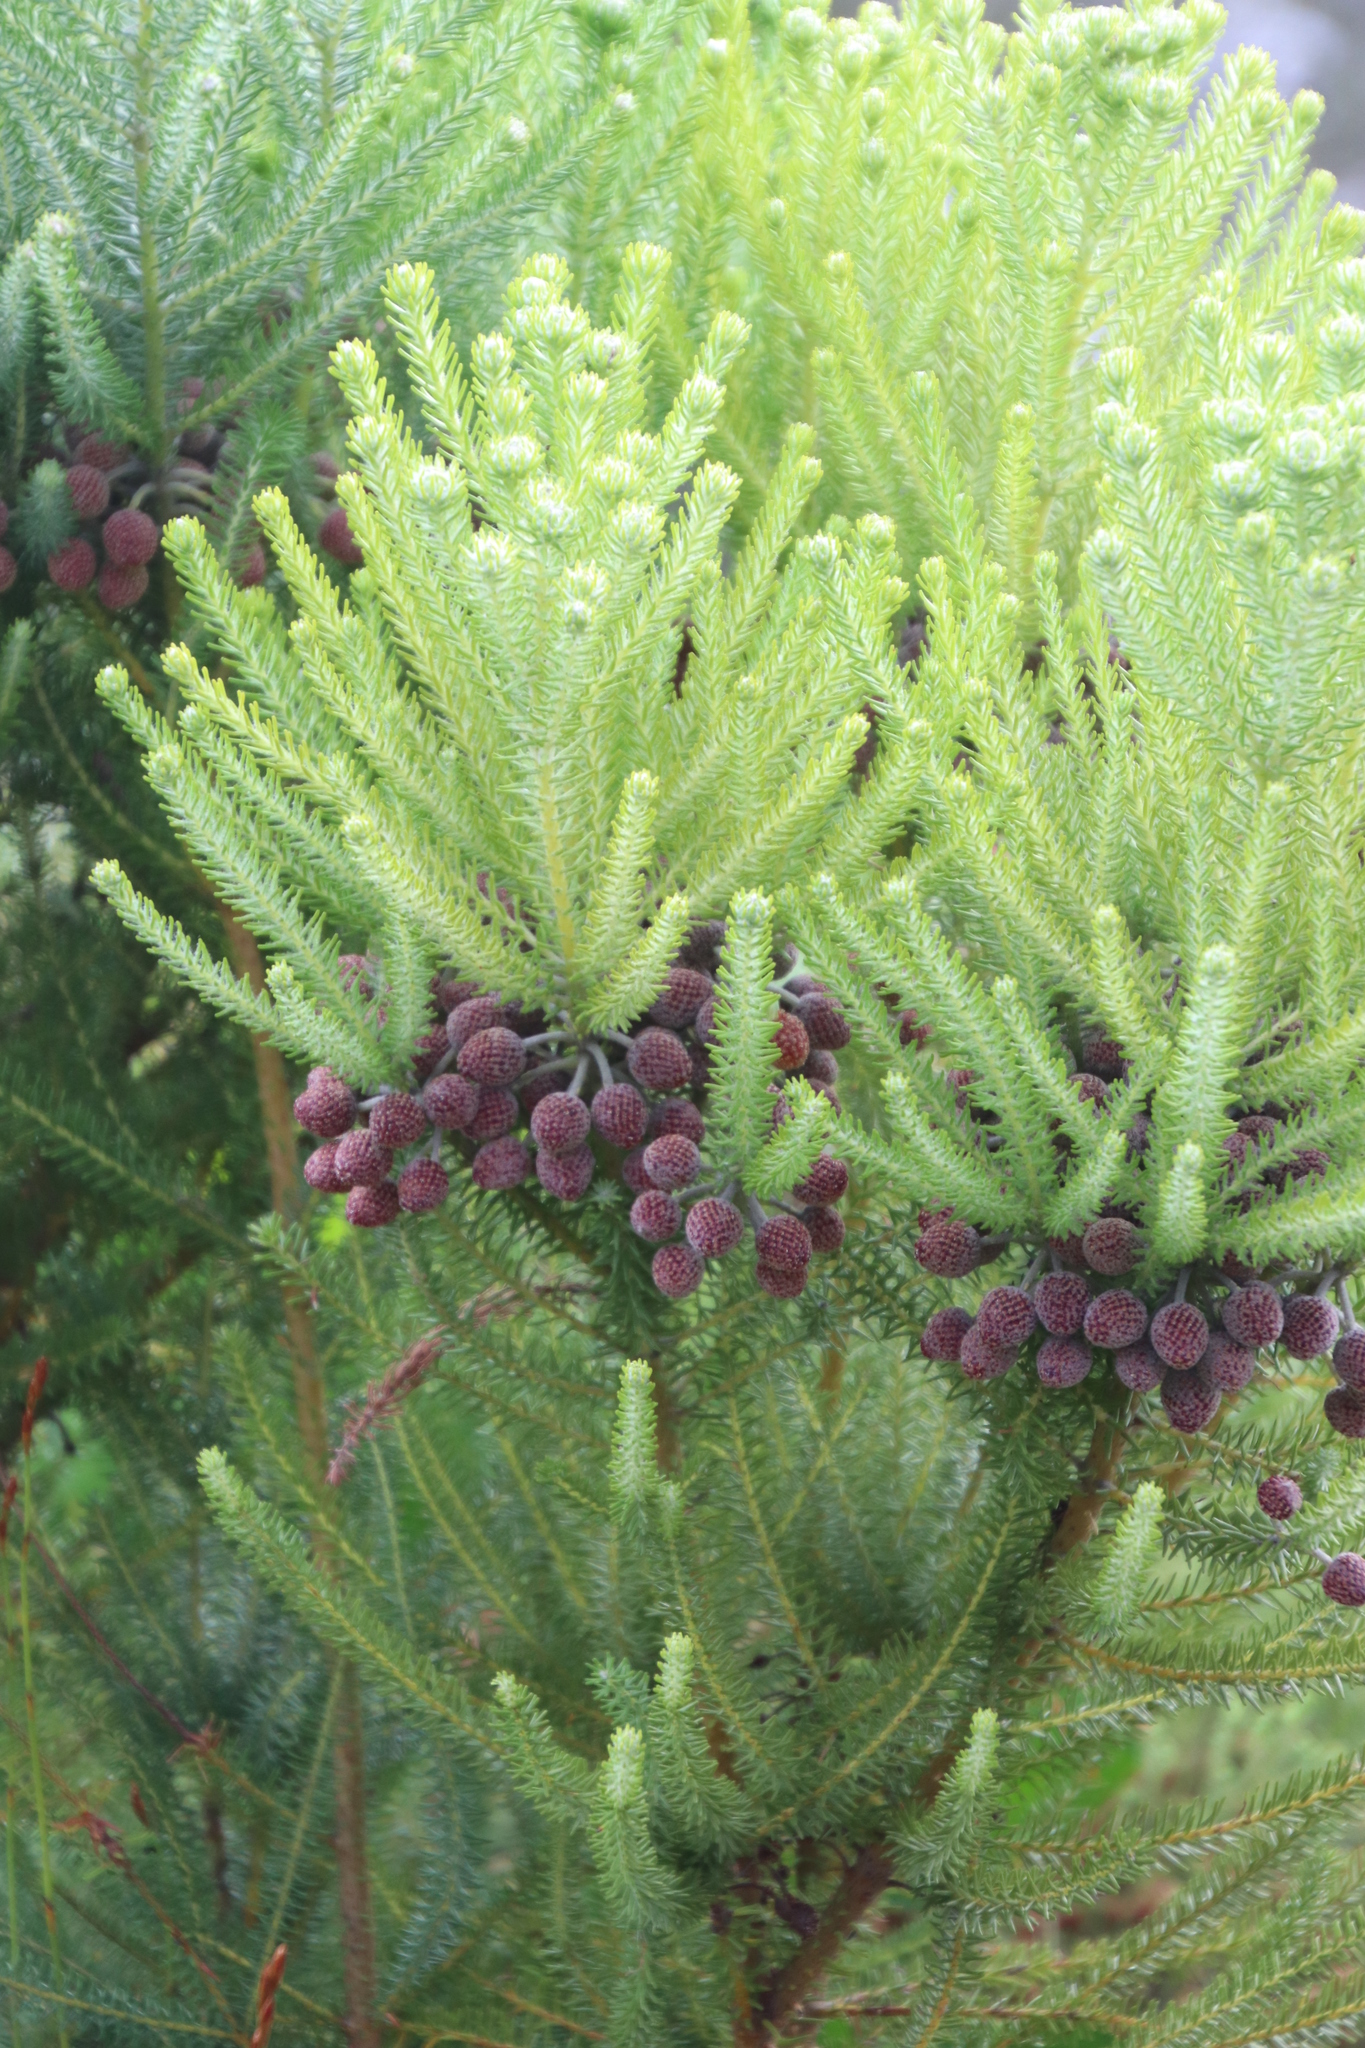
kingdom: Plantae
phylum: Tracheophyta
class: Magnoliopsida
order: Bruniales
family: Bruniaceae
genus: Berzelia
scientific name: Berzelia squarrosa
